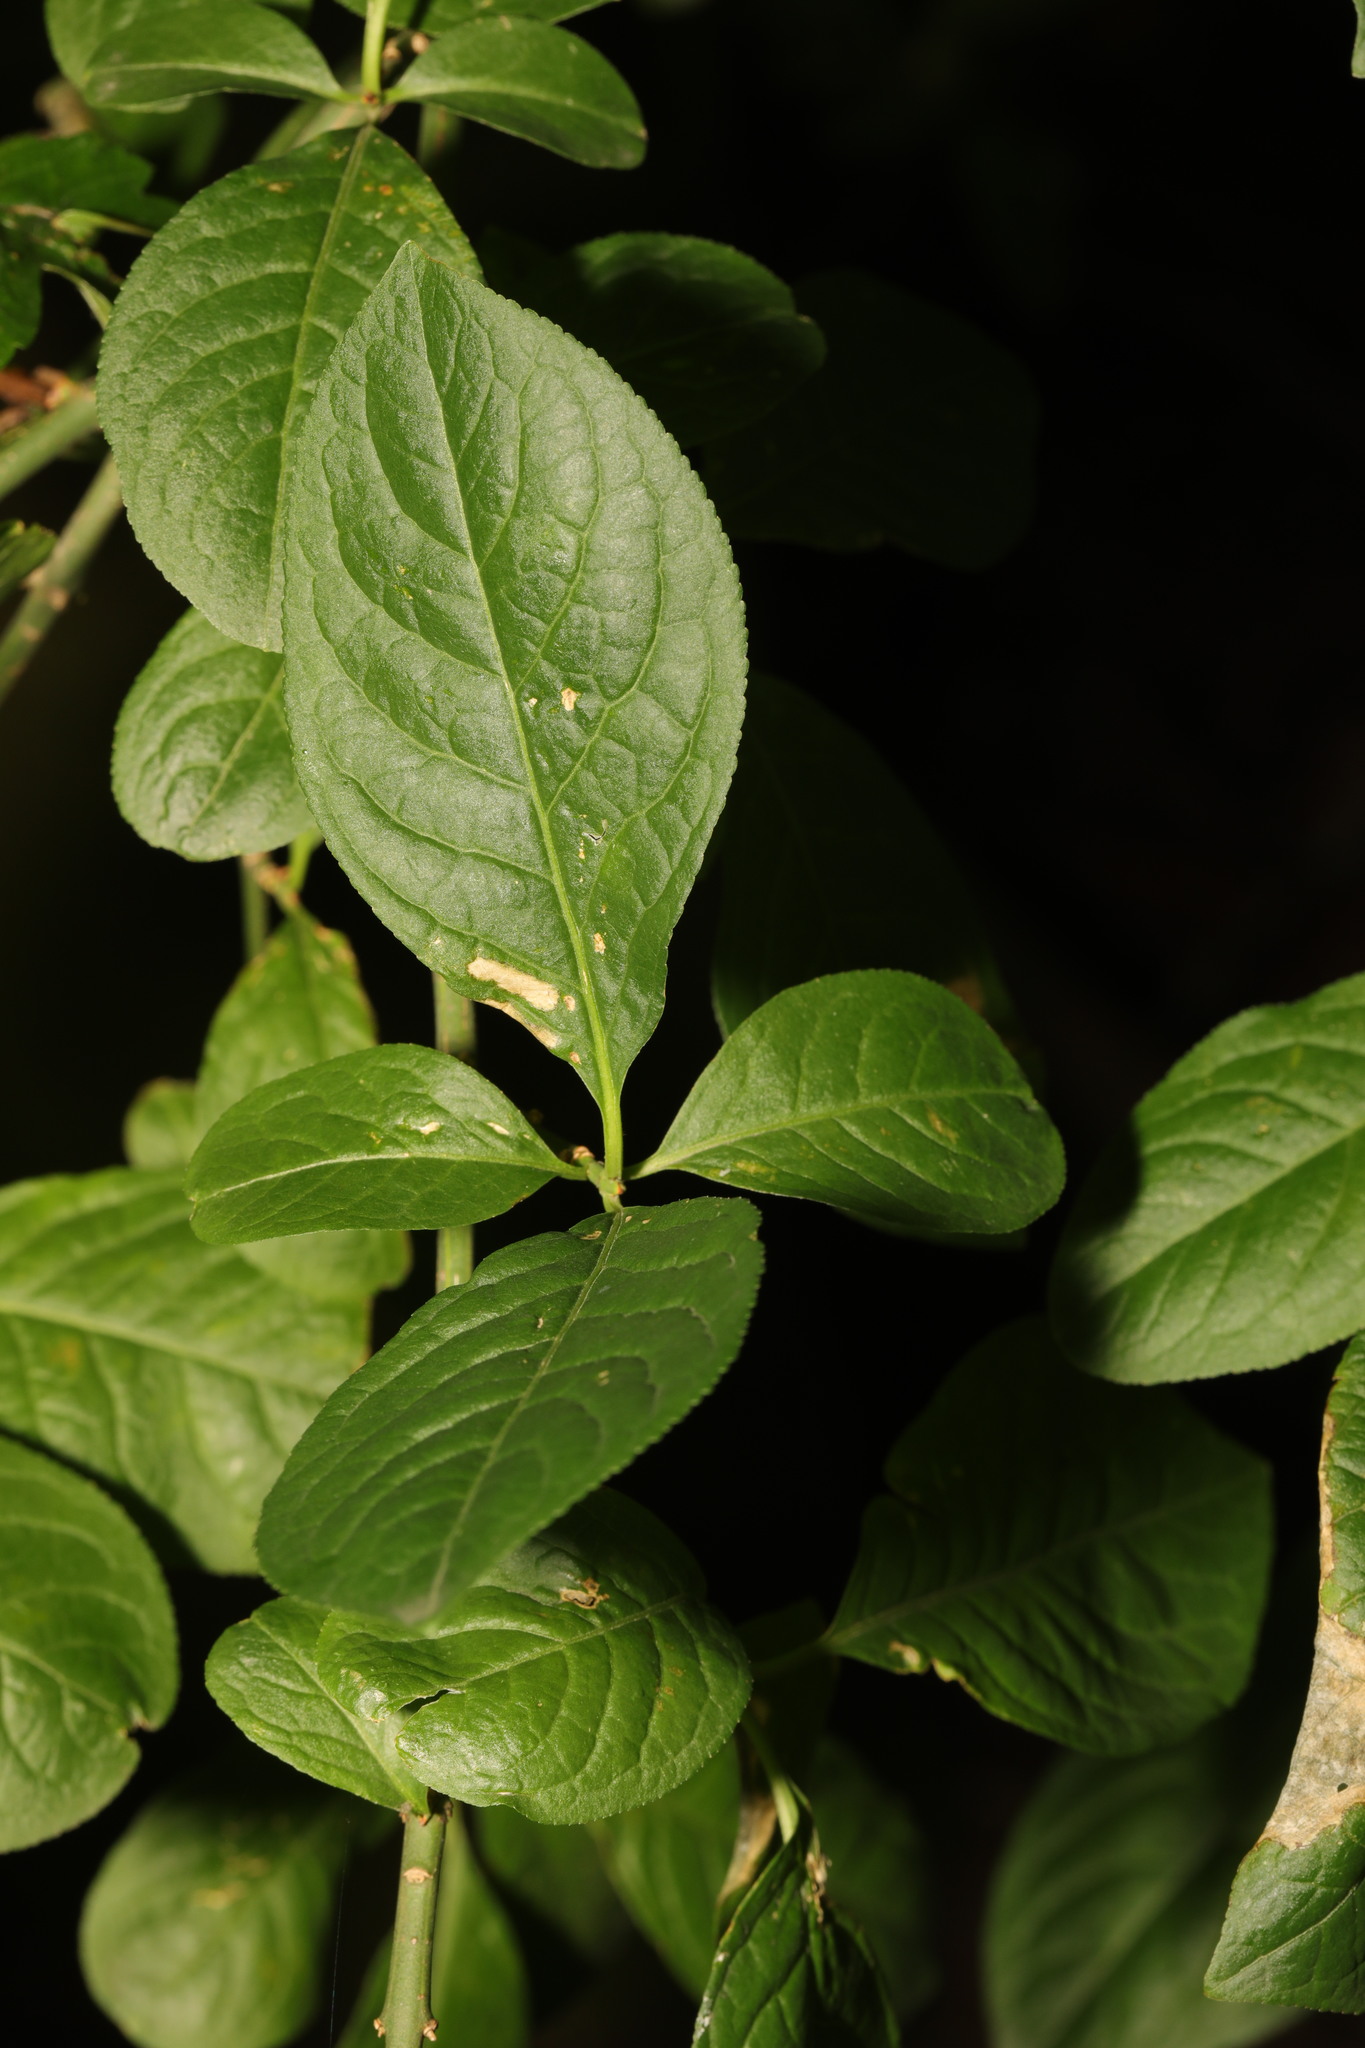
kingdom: Plantae
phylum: Tracheophyta
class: Magnoliopsida
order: Celastrales
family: Celastraceae
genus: Euonymus
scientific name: Euonymus europaeus
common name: Spindle
